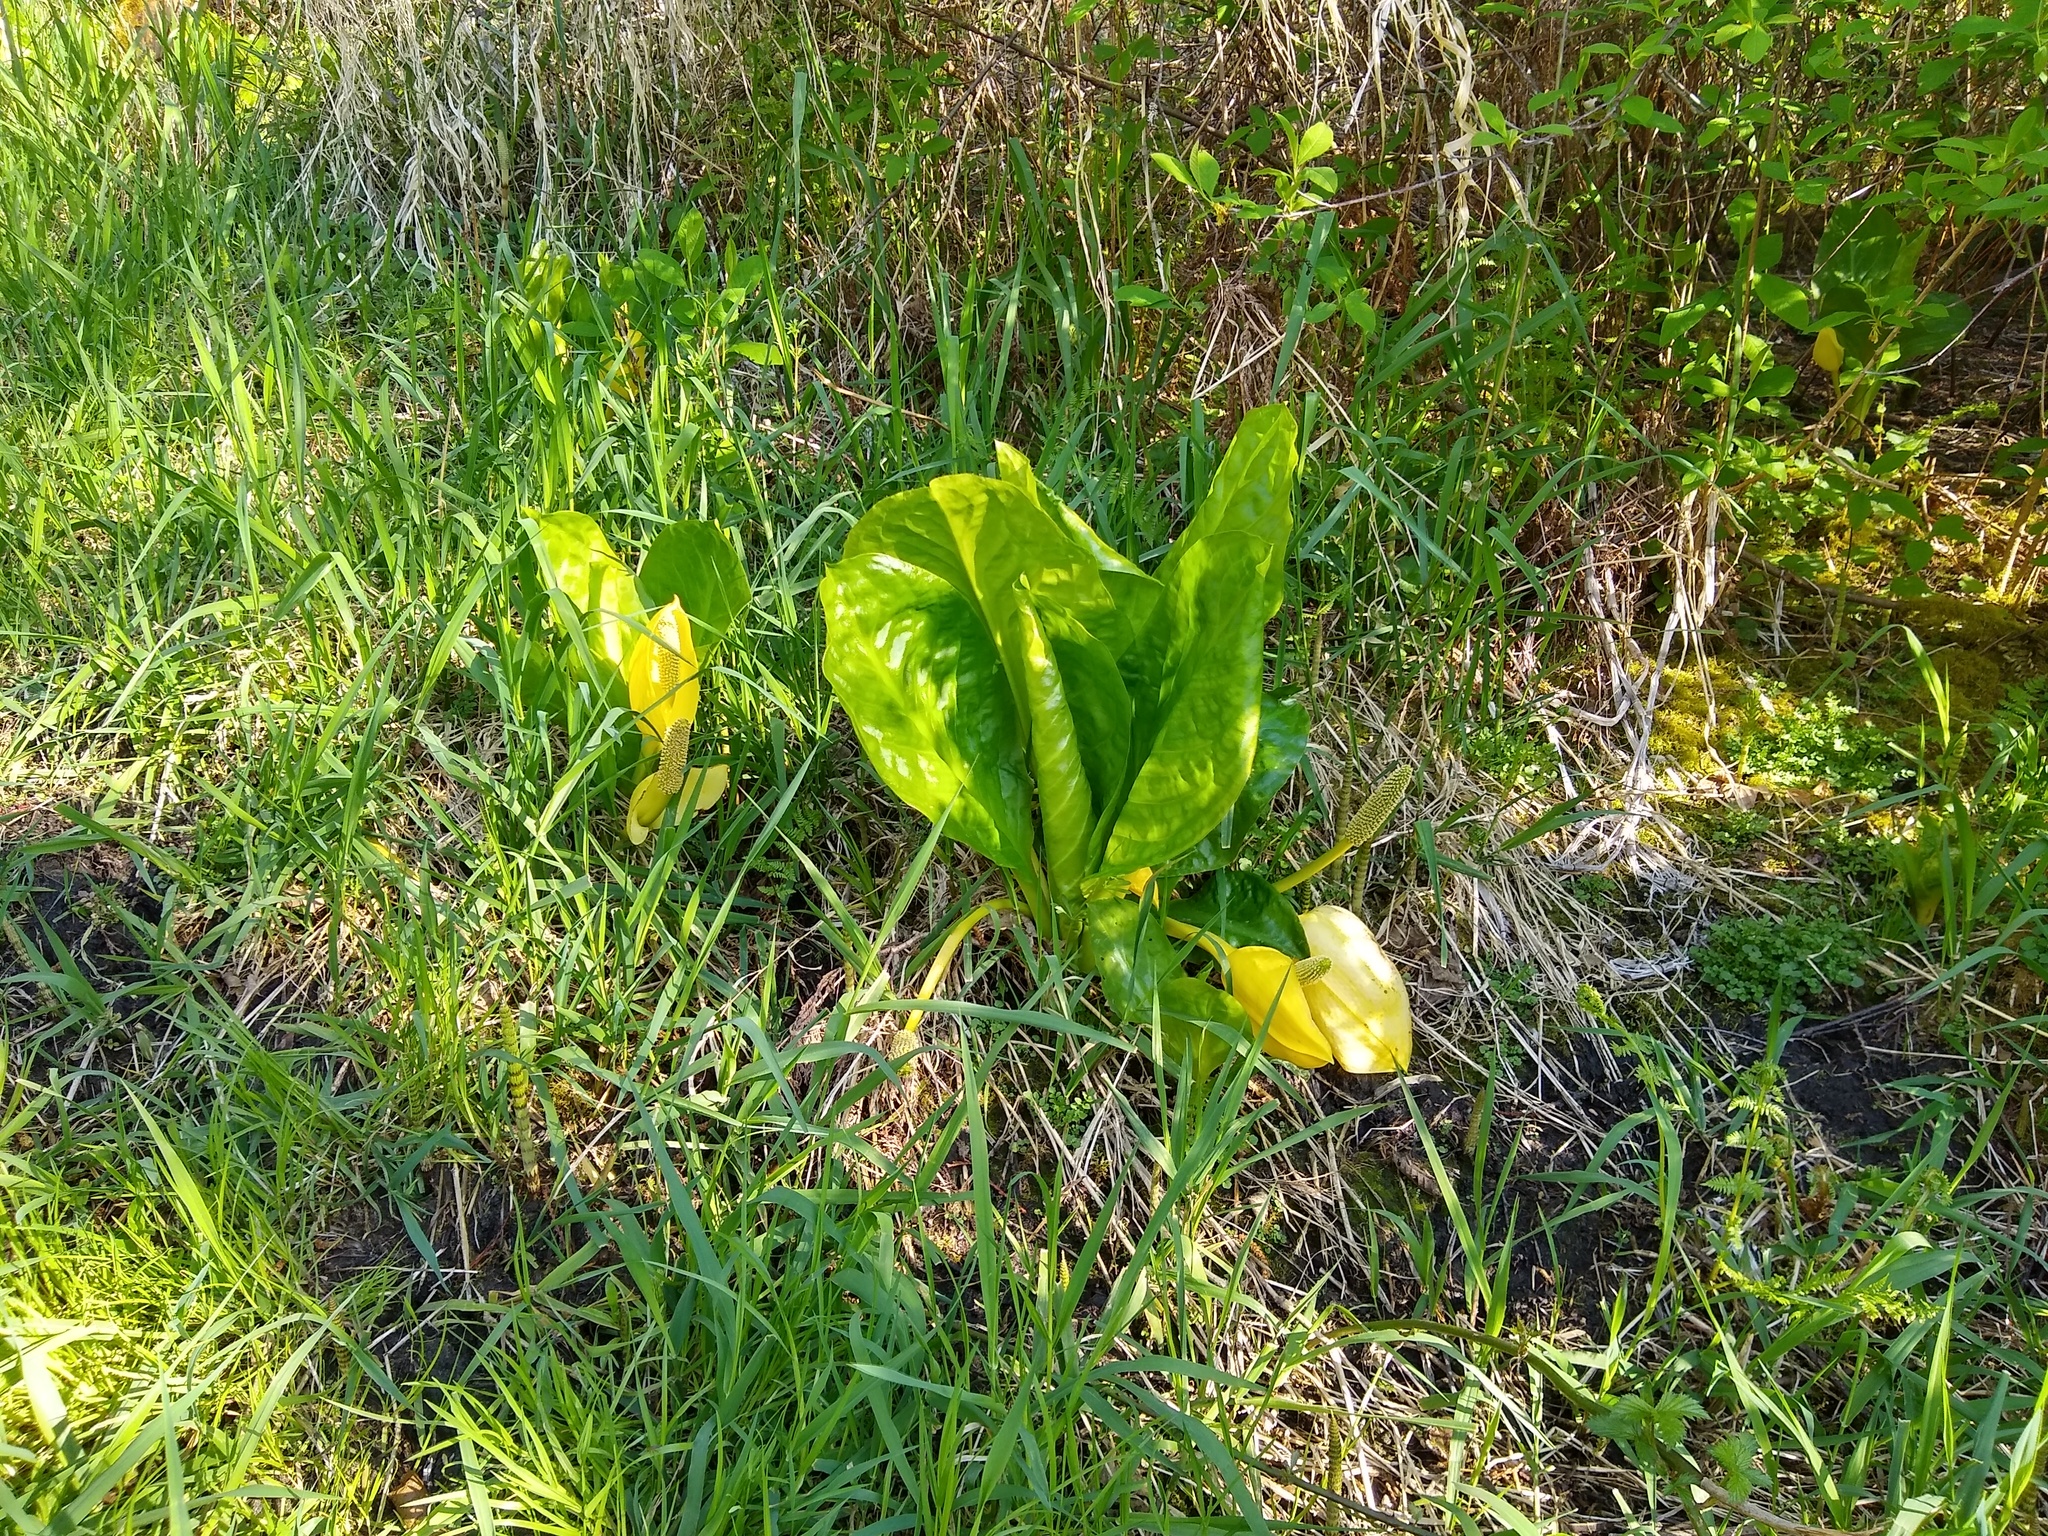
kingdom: Plantae
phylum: Tracheophyta
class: Liliopsida
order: Alismatales
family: Araceae
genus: Lysichiton
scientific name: Lysichiton americanus
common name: American skunk cabbage
